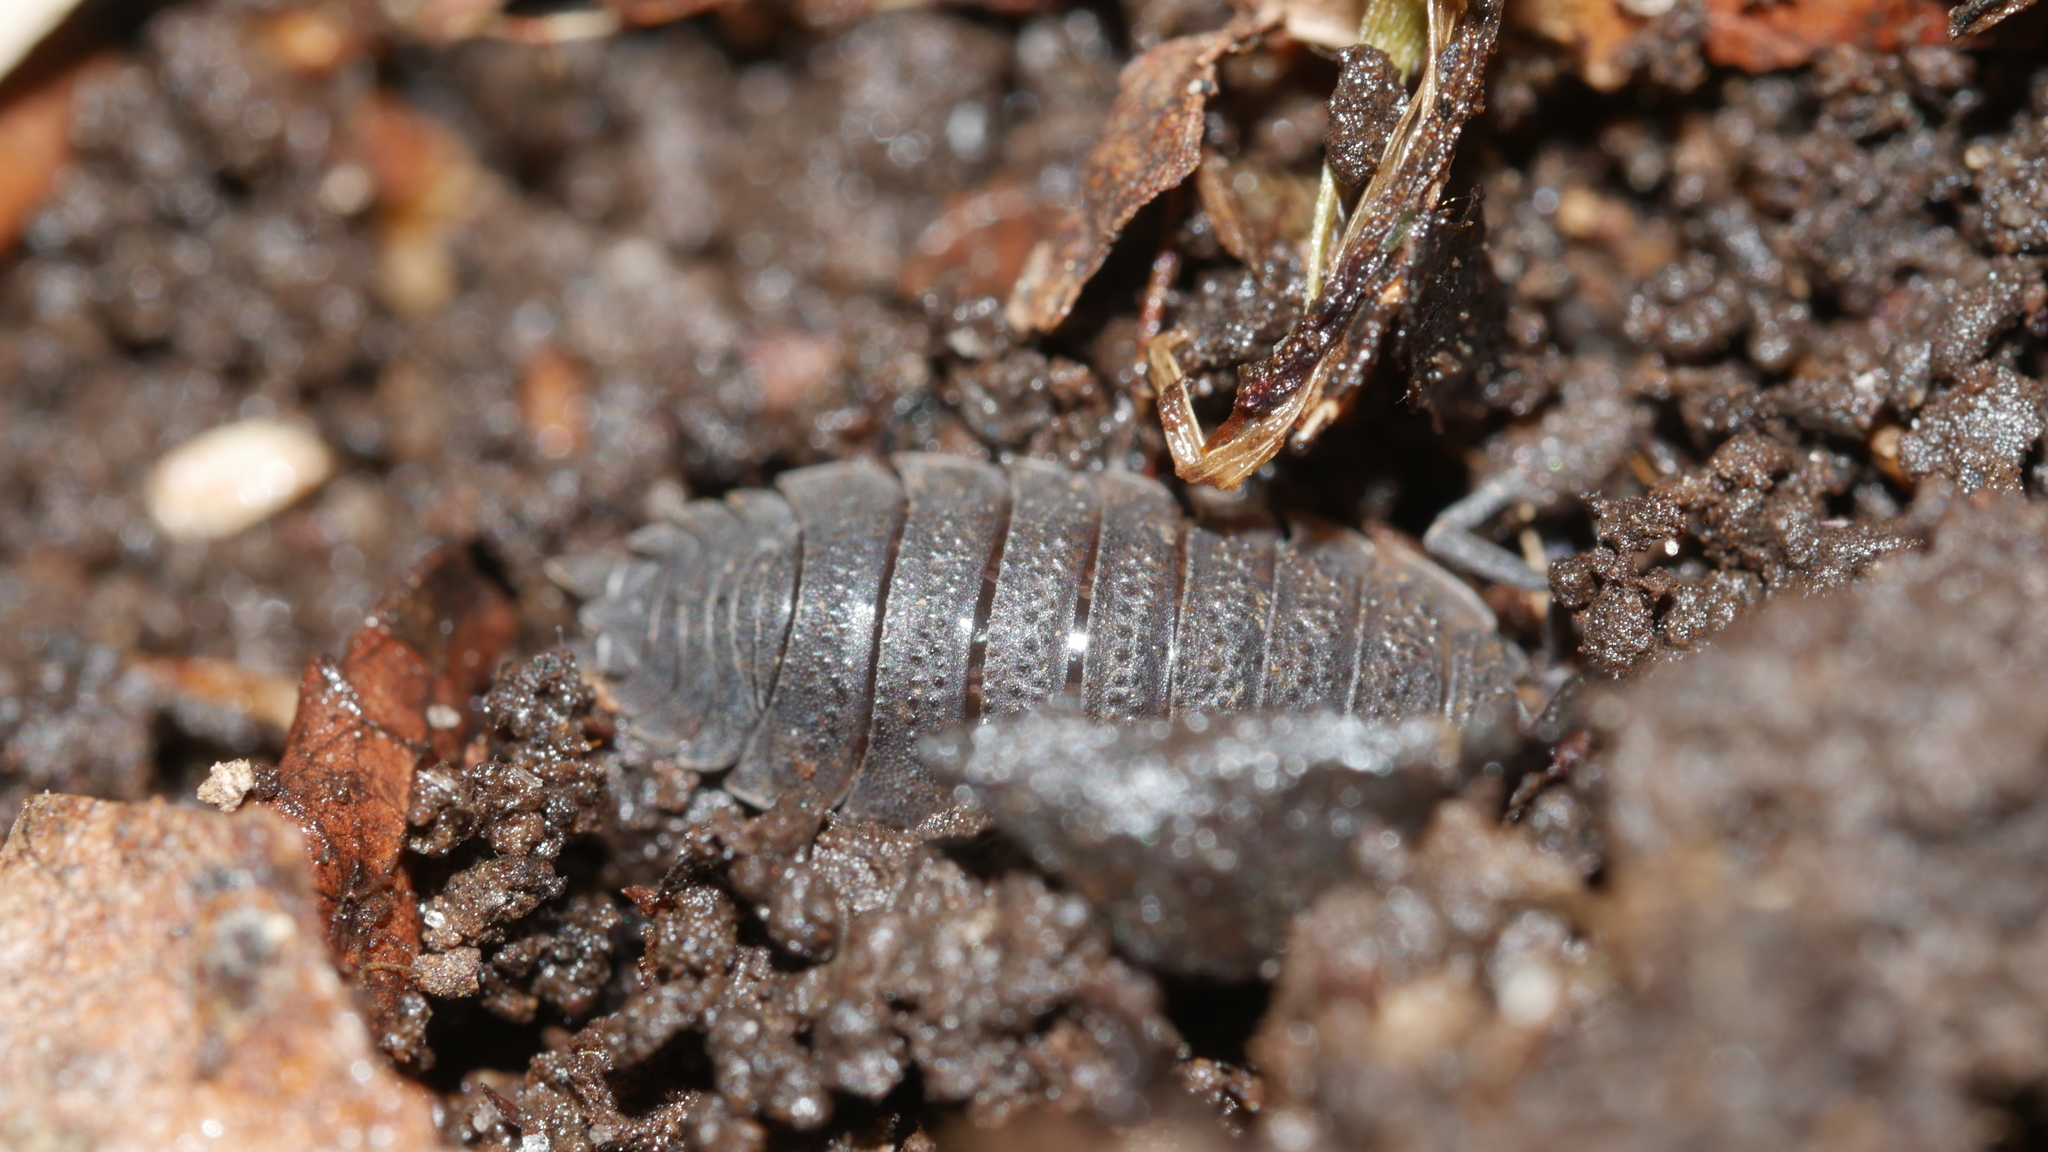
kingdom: Animalia
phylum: Arthropoda
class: Malacostraca
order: Isopoda
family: Porcellionidae
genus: Porcellio
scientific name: Porcellio scaber
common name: Common rough woodlouse
